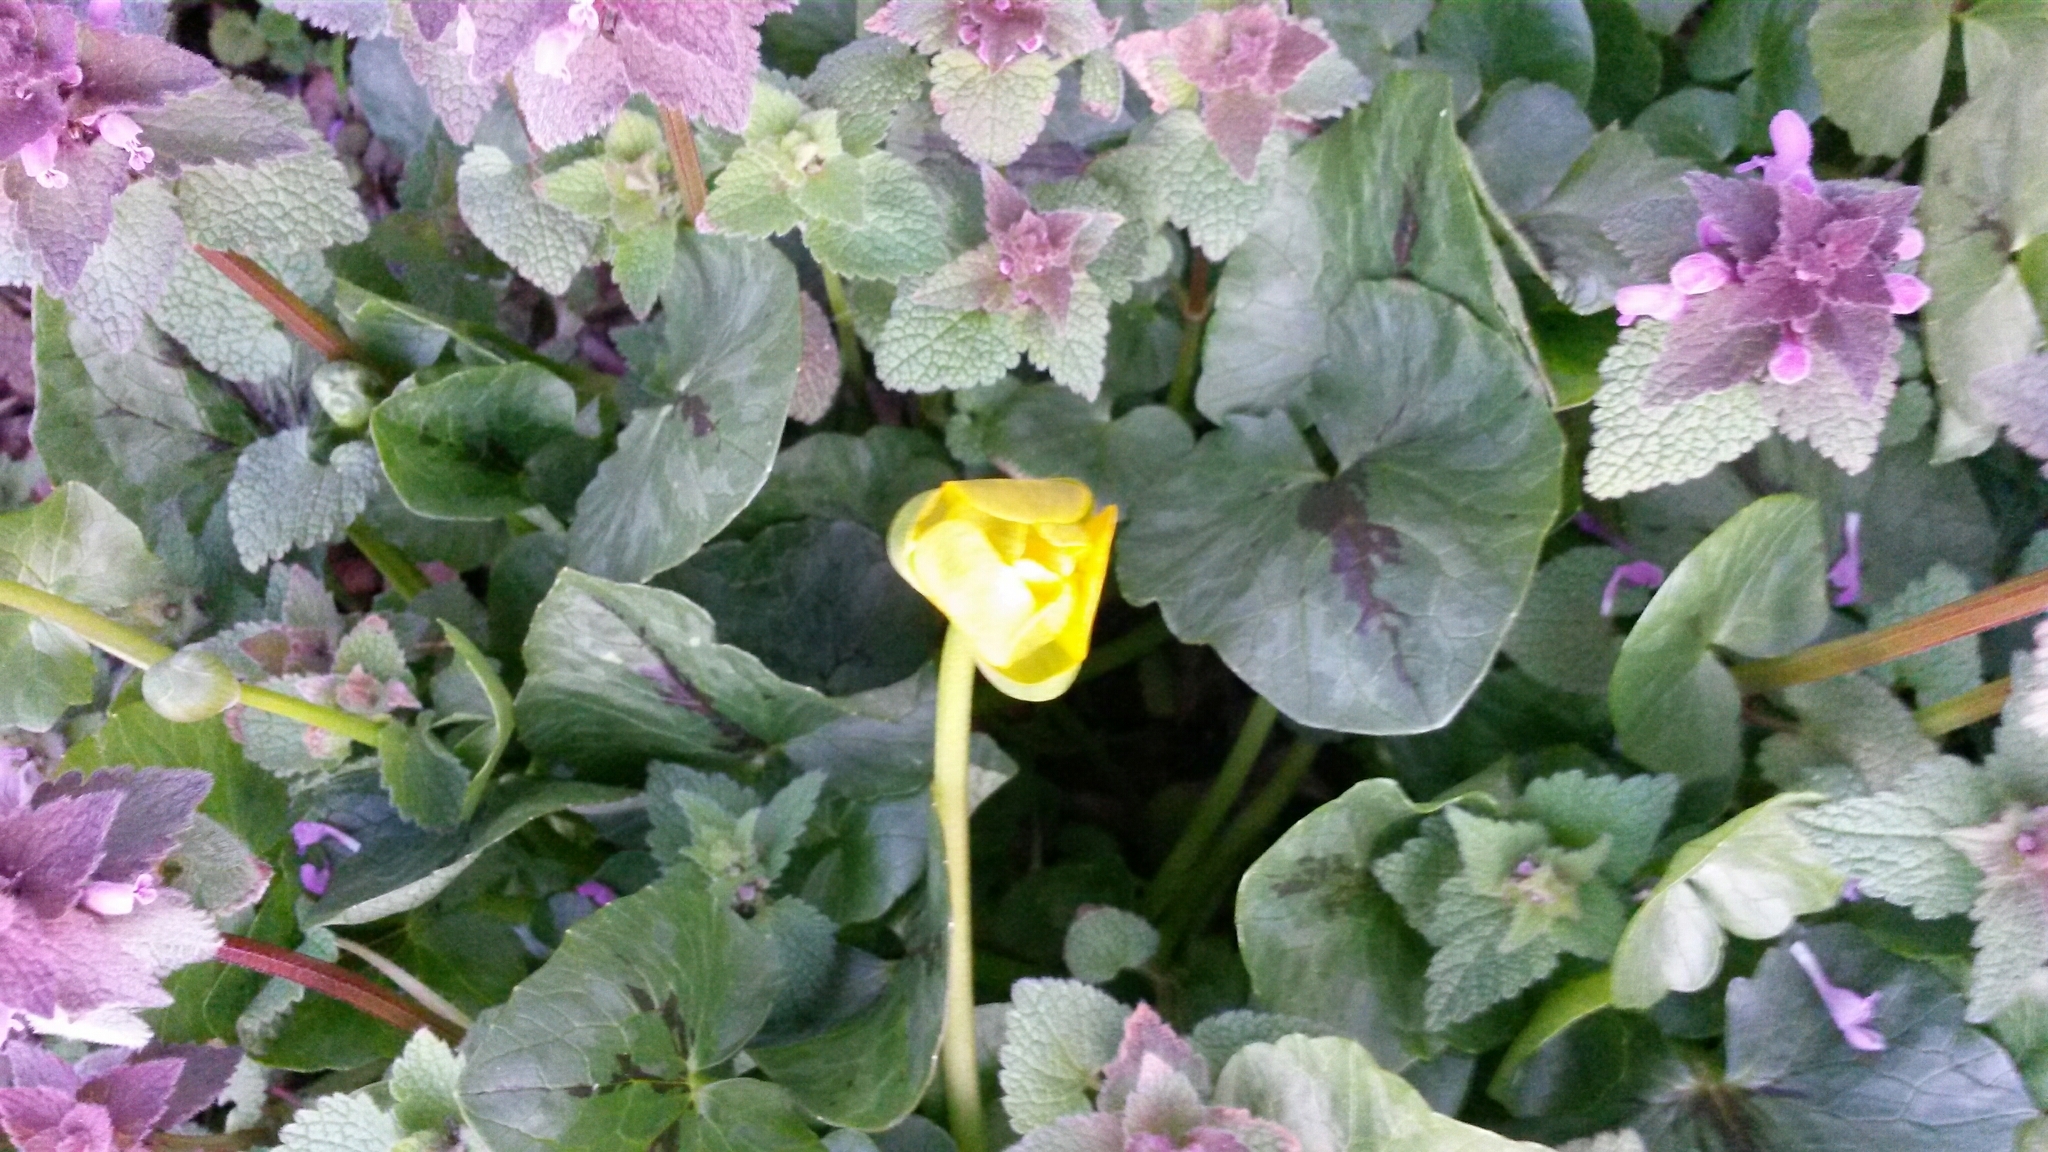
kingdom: Plantae
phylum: Tracheophyta
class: Magnoliopsida
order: Ranunculales
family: Ranunculaceae
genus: Ficaria
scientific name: Ficaria verna
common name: Lesser celandine
